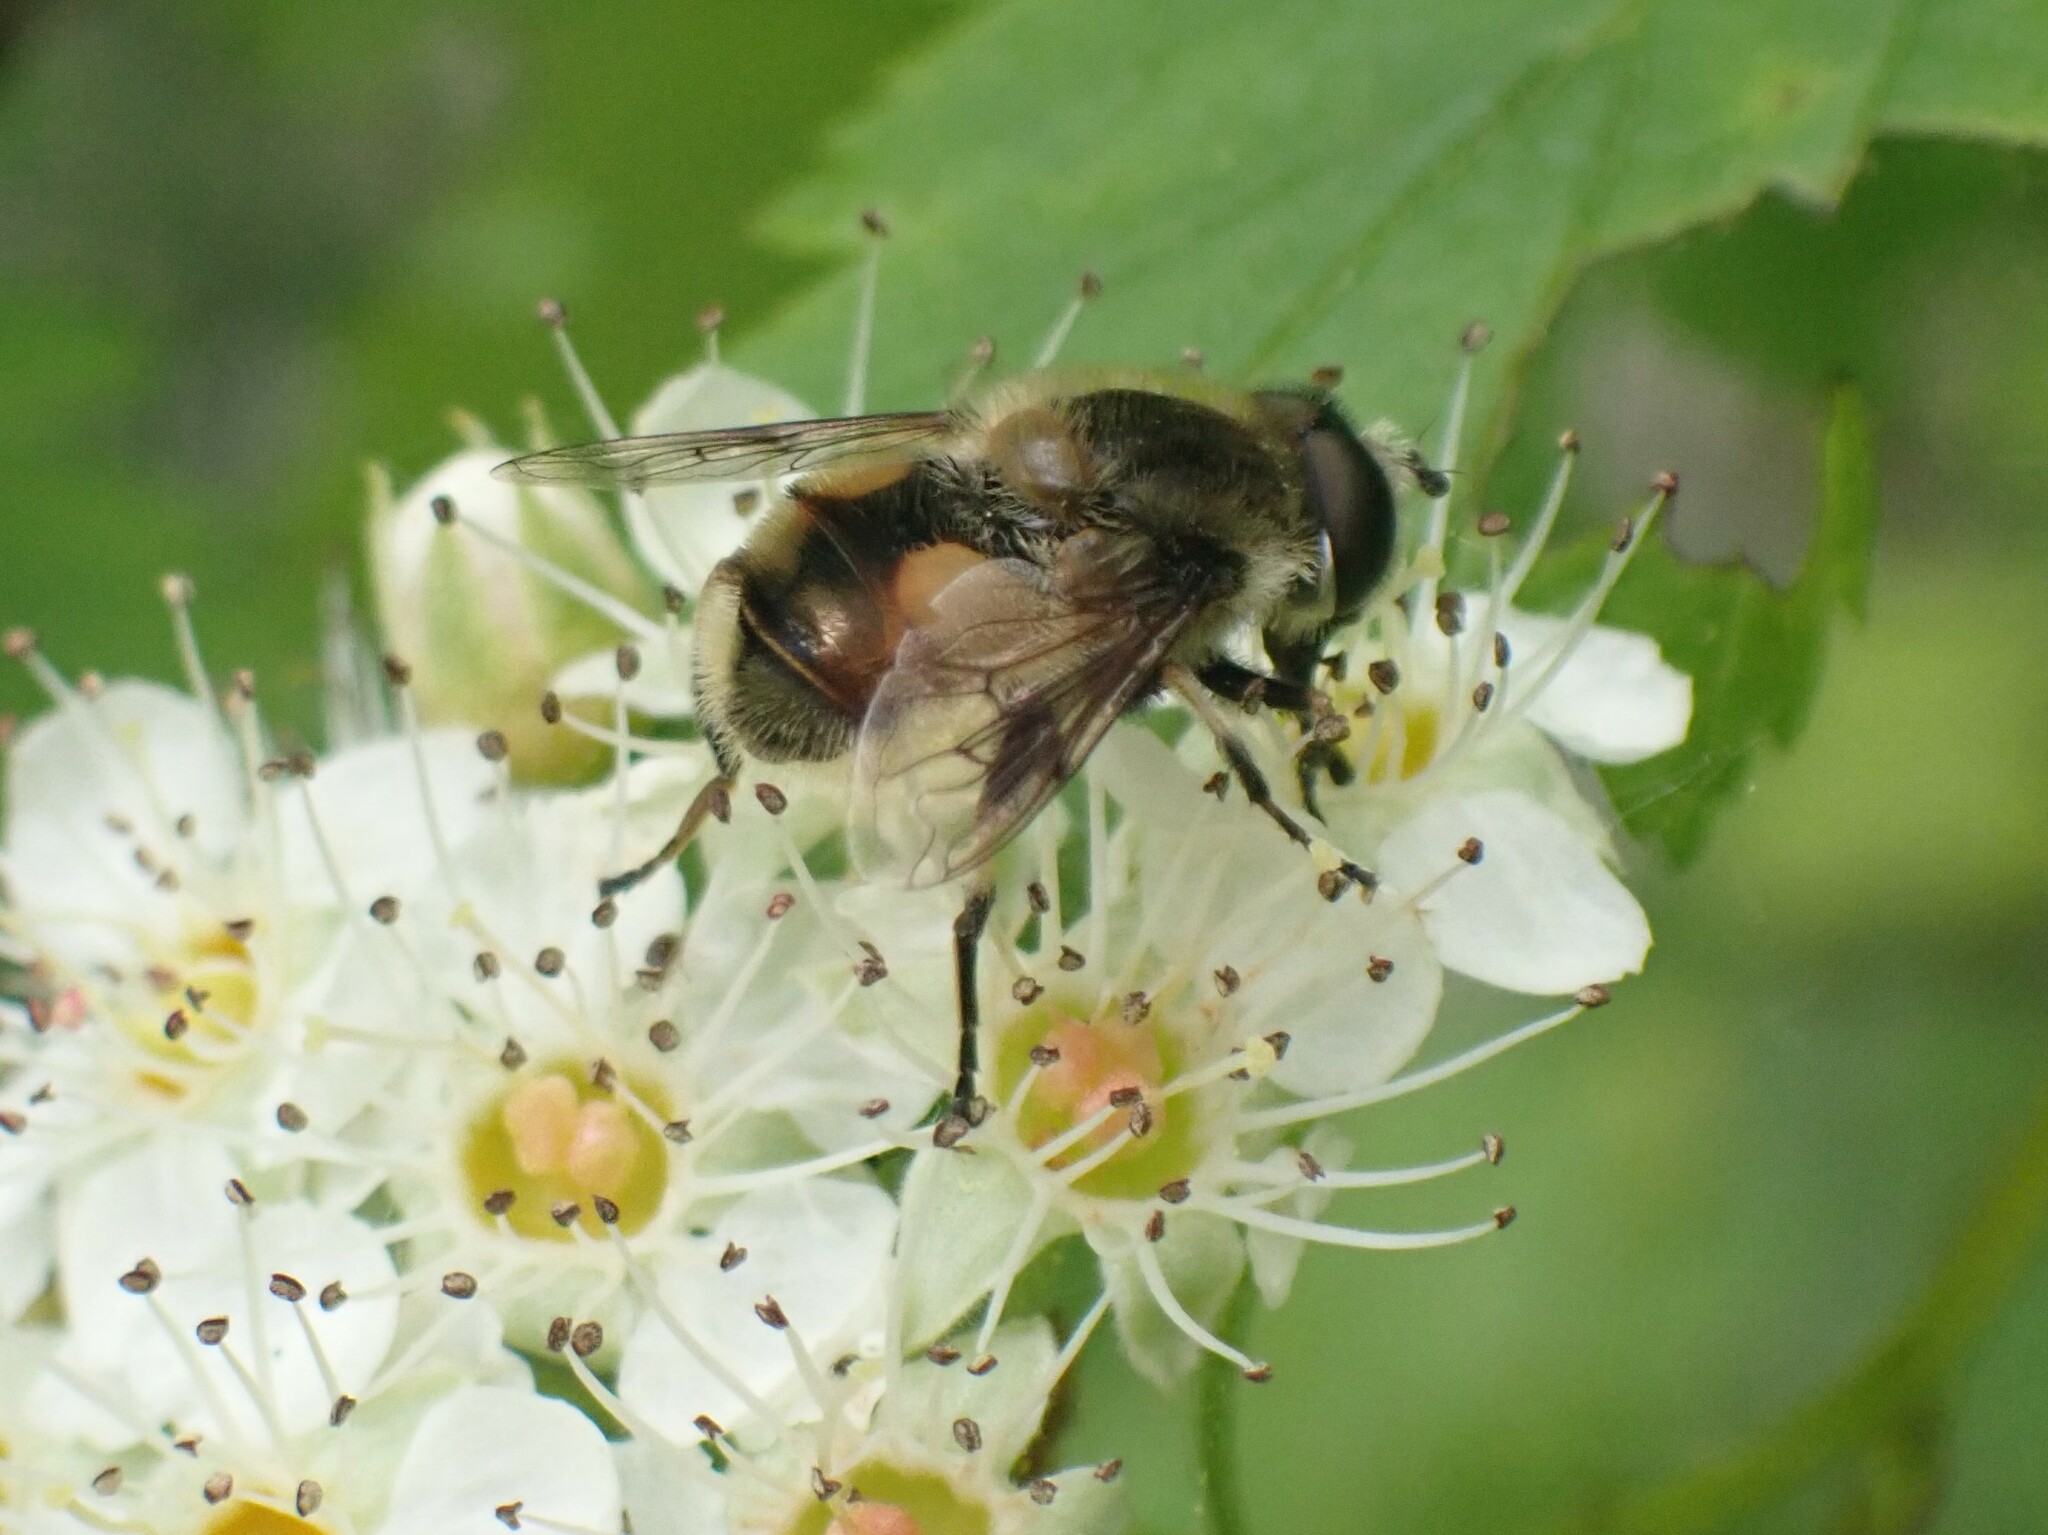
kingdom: Animalia
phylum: Arthropoda
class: Insecta
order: Diptera
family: Syrphidae
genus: Eristalis
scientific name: Eristalis anthophorina
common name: Orange-spotted drone fly
